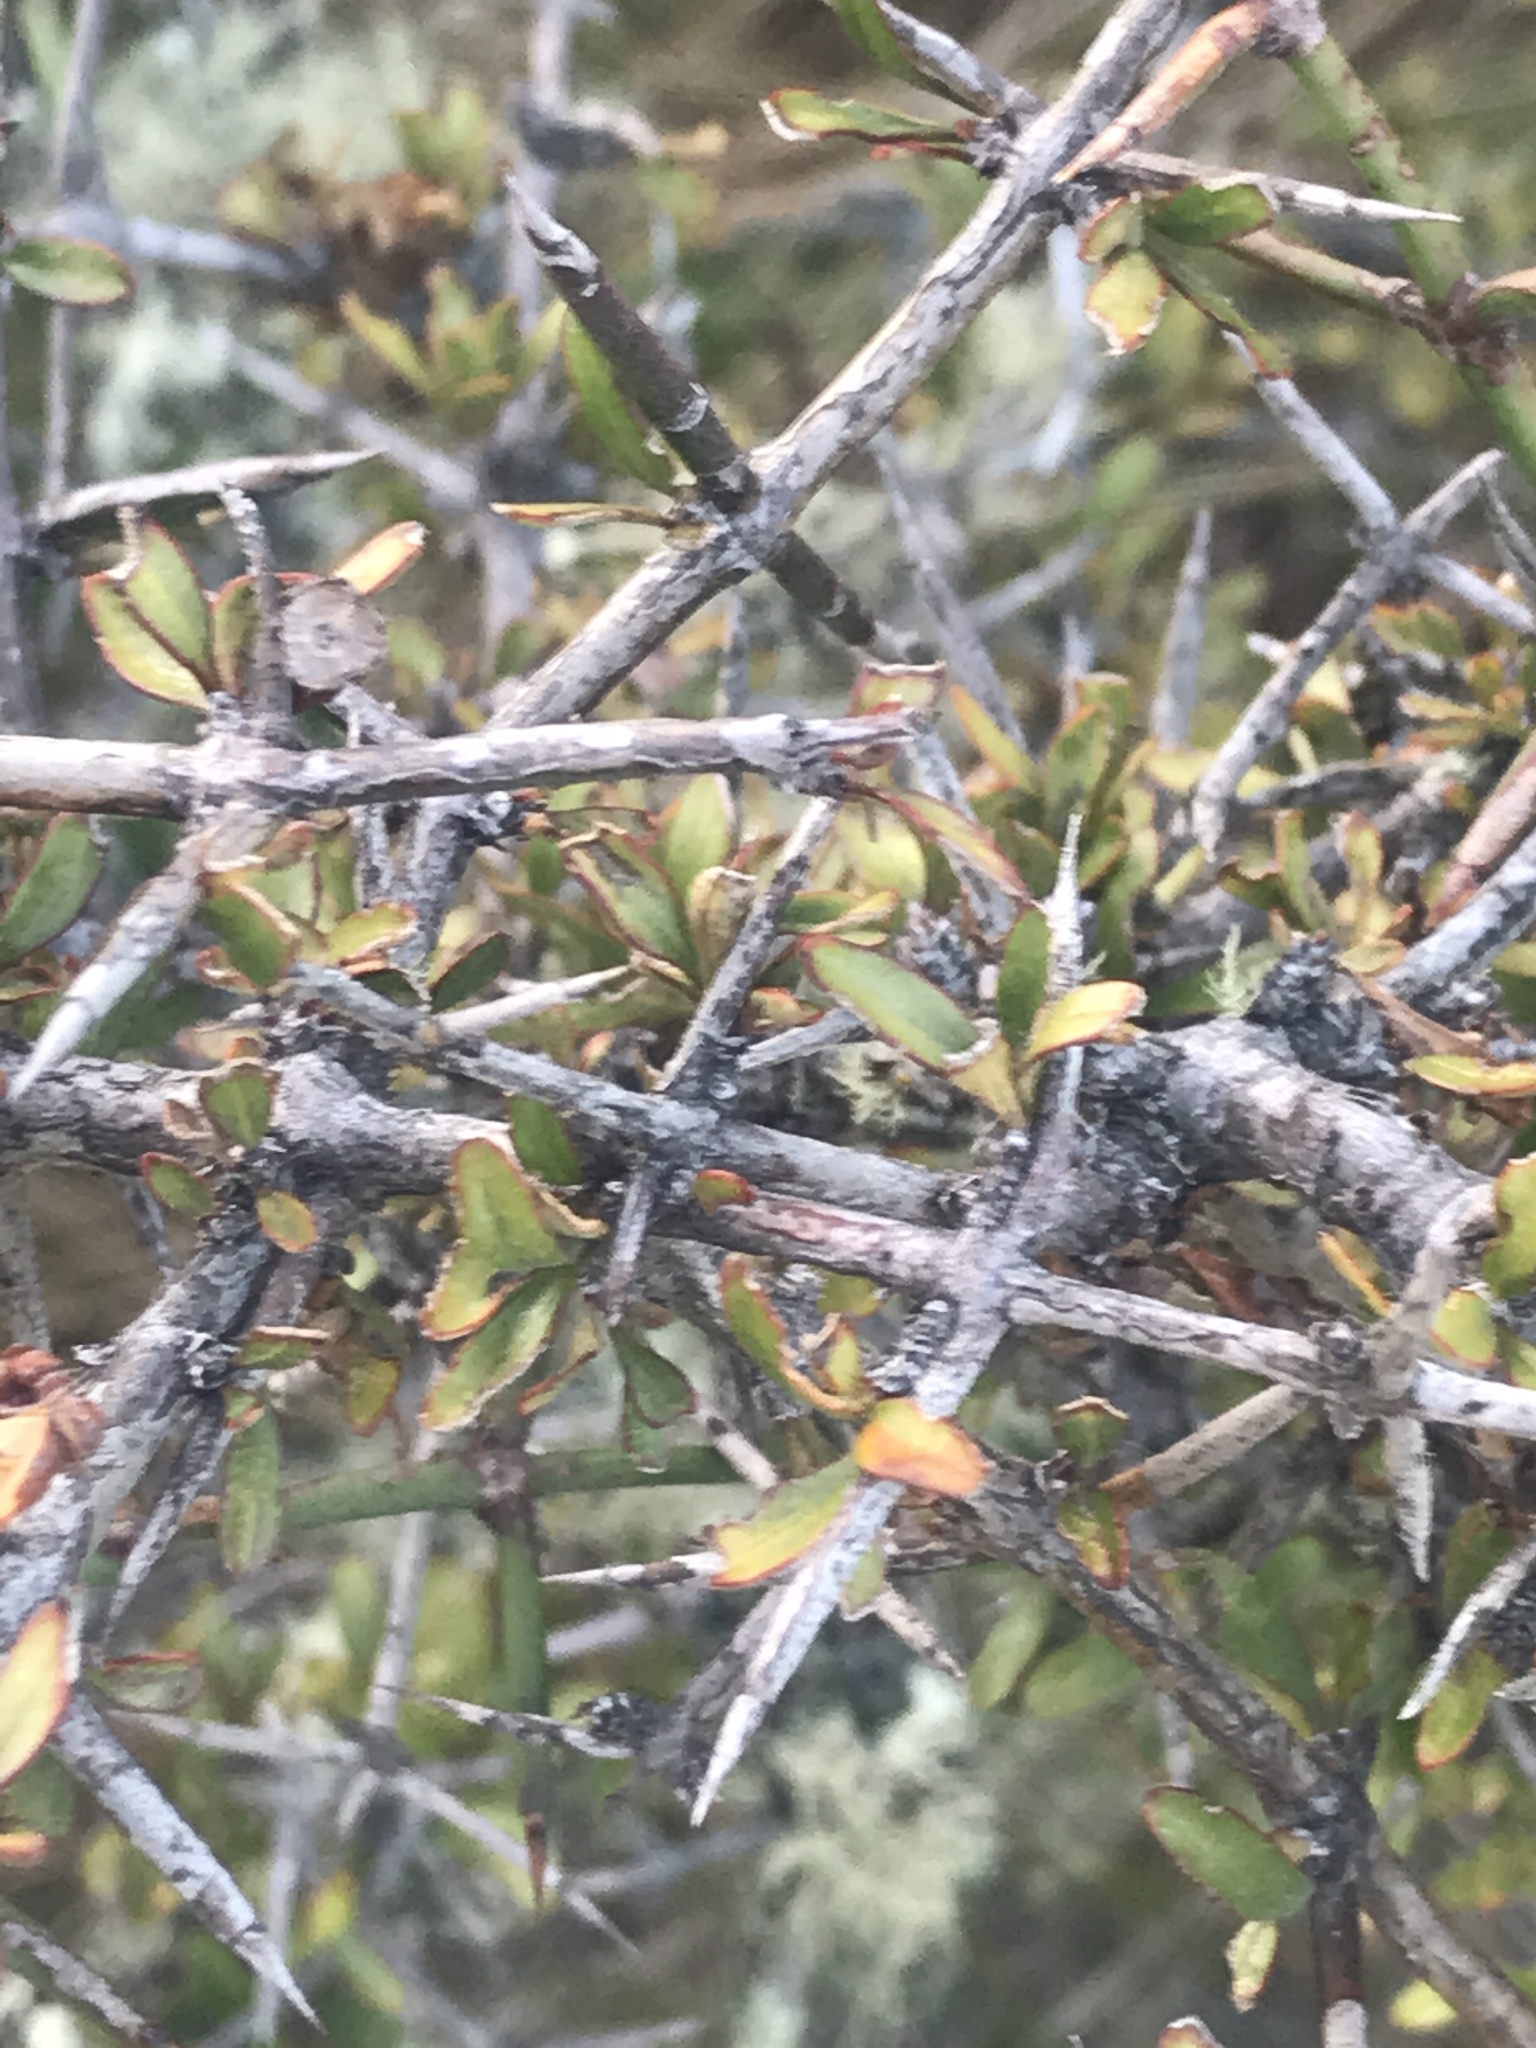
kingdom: Plantae
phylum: Tracheophyta
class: Magnoliopsida
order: Rosales
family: Rhamnaceae
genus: Discaria
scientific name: Discaria toumatou
